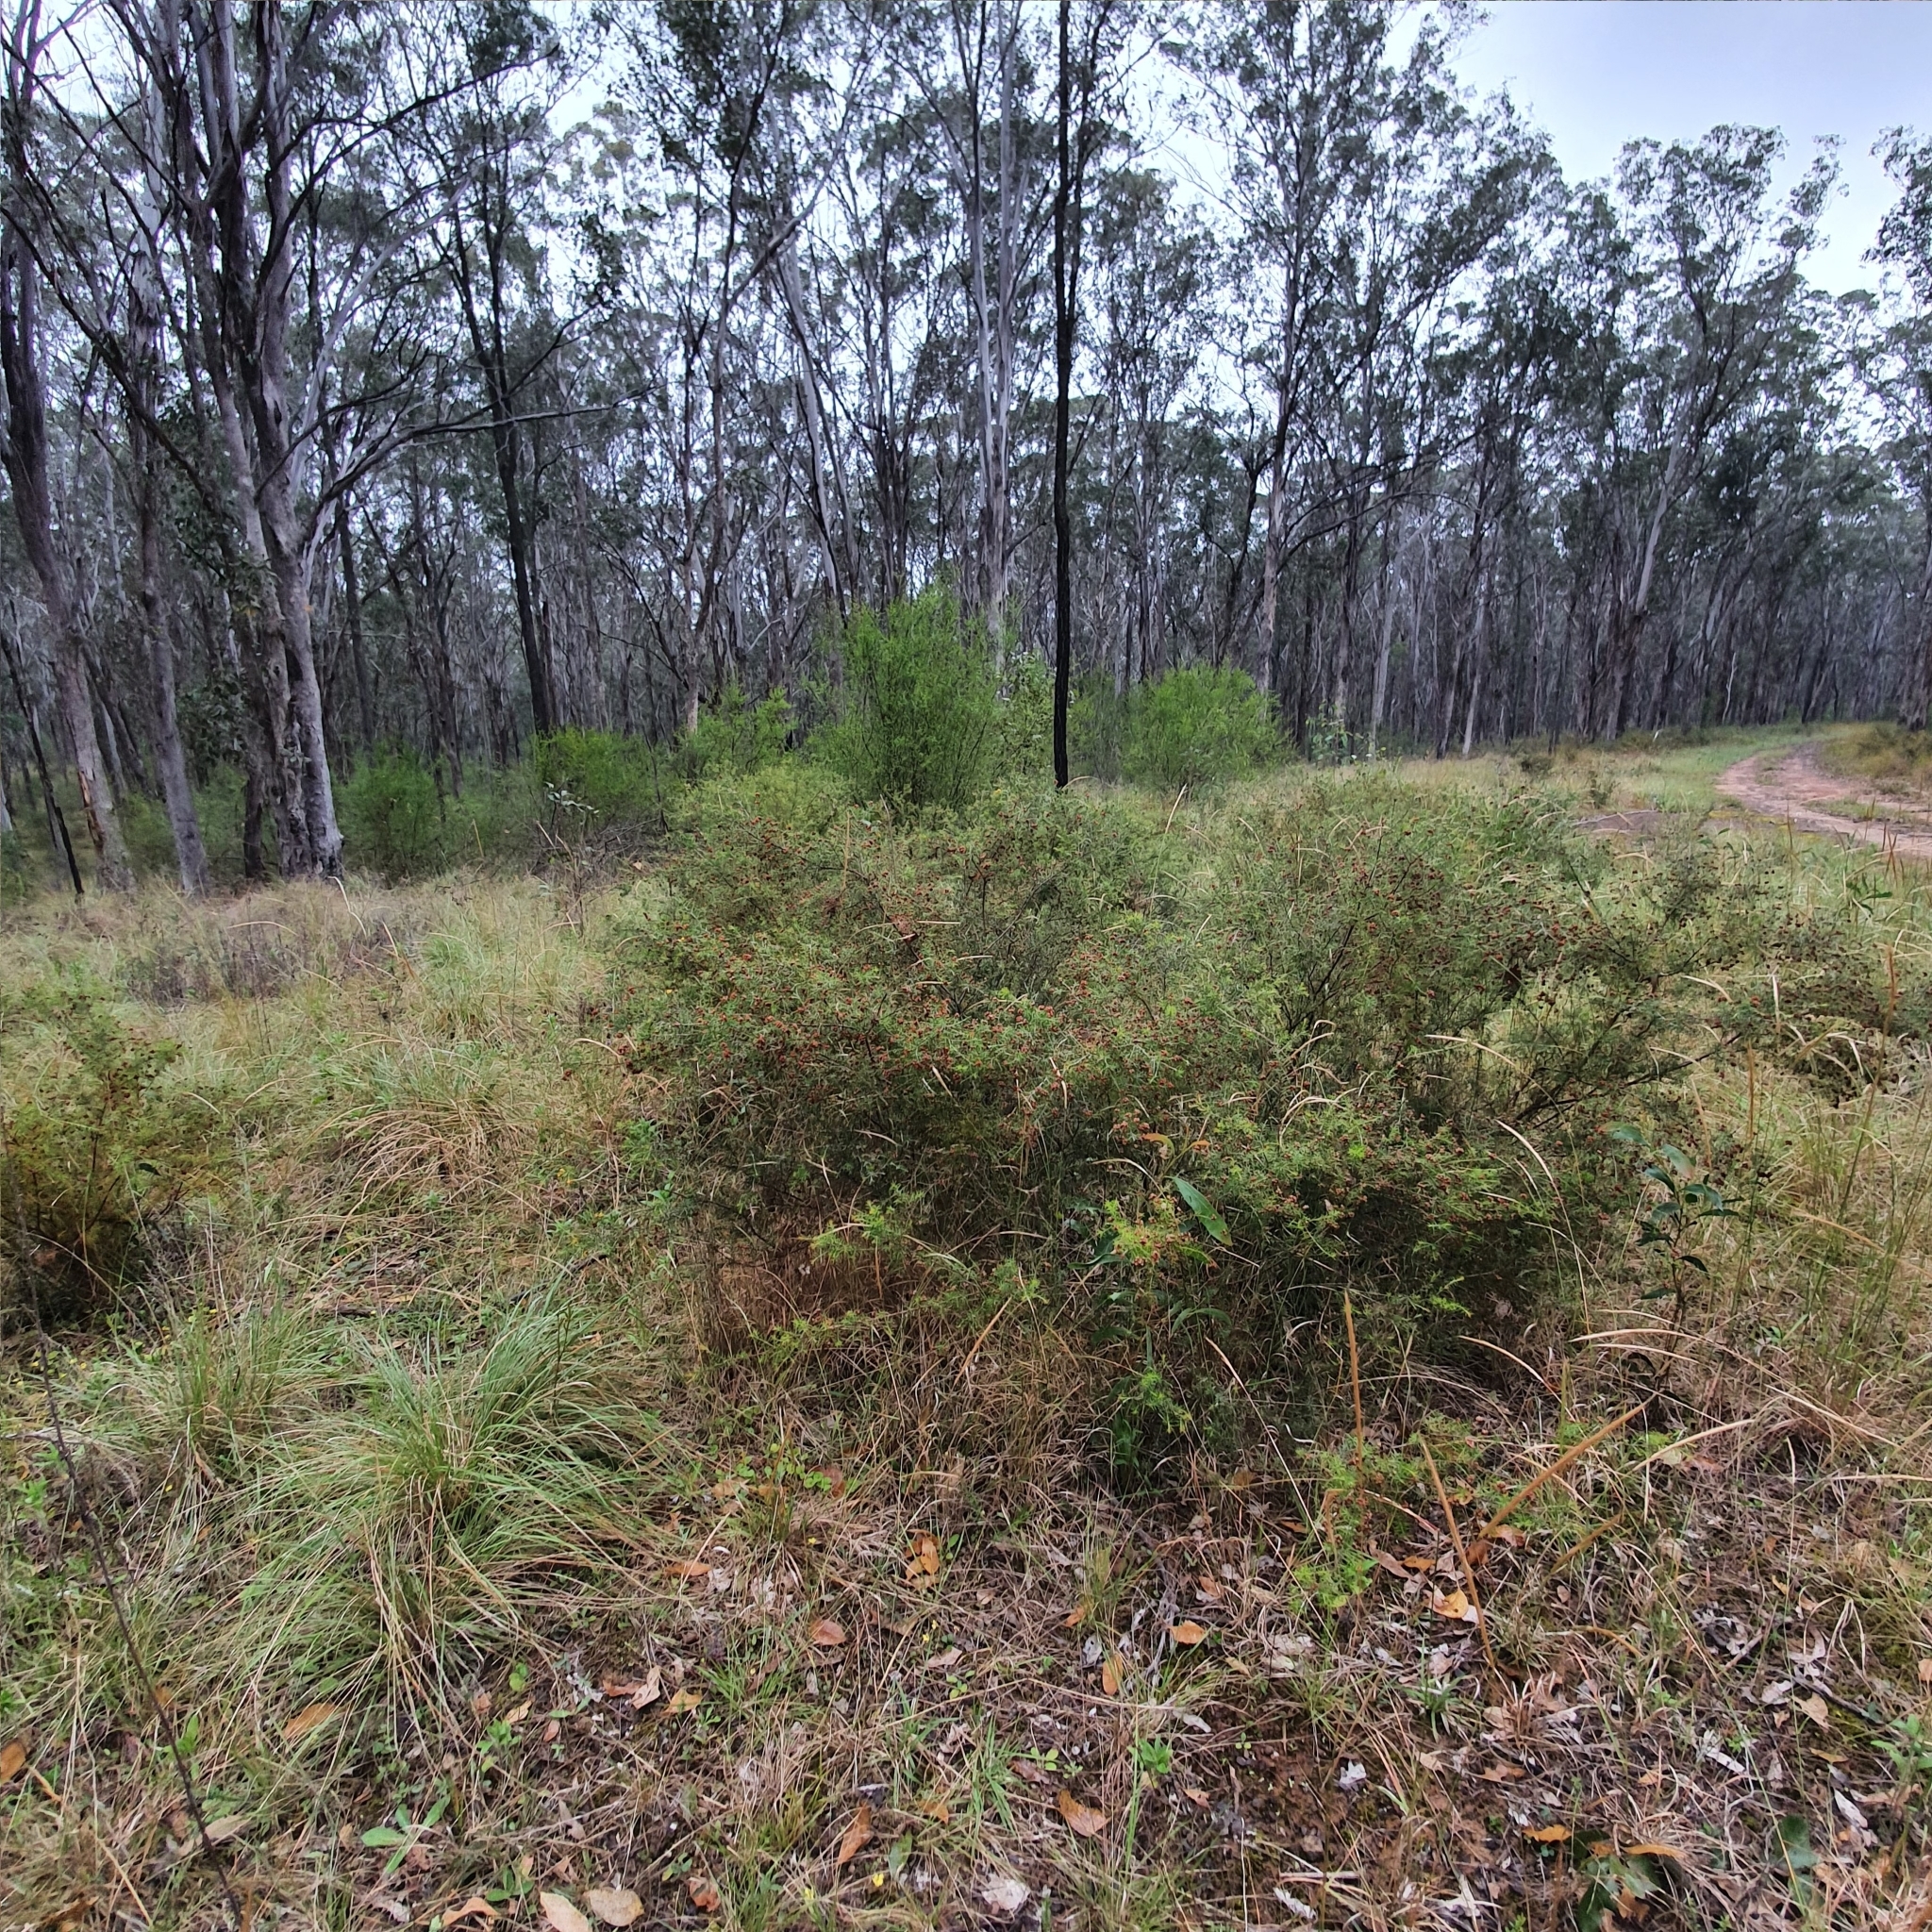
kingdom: Plantae
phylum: Tracheophyta
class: Magnoliopsida
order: Fabales
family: Fabaceae
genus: Dillwynia
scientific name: Dillwynia sieberi
